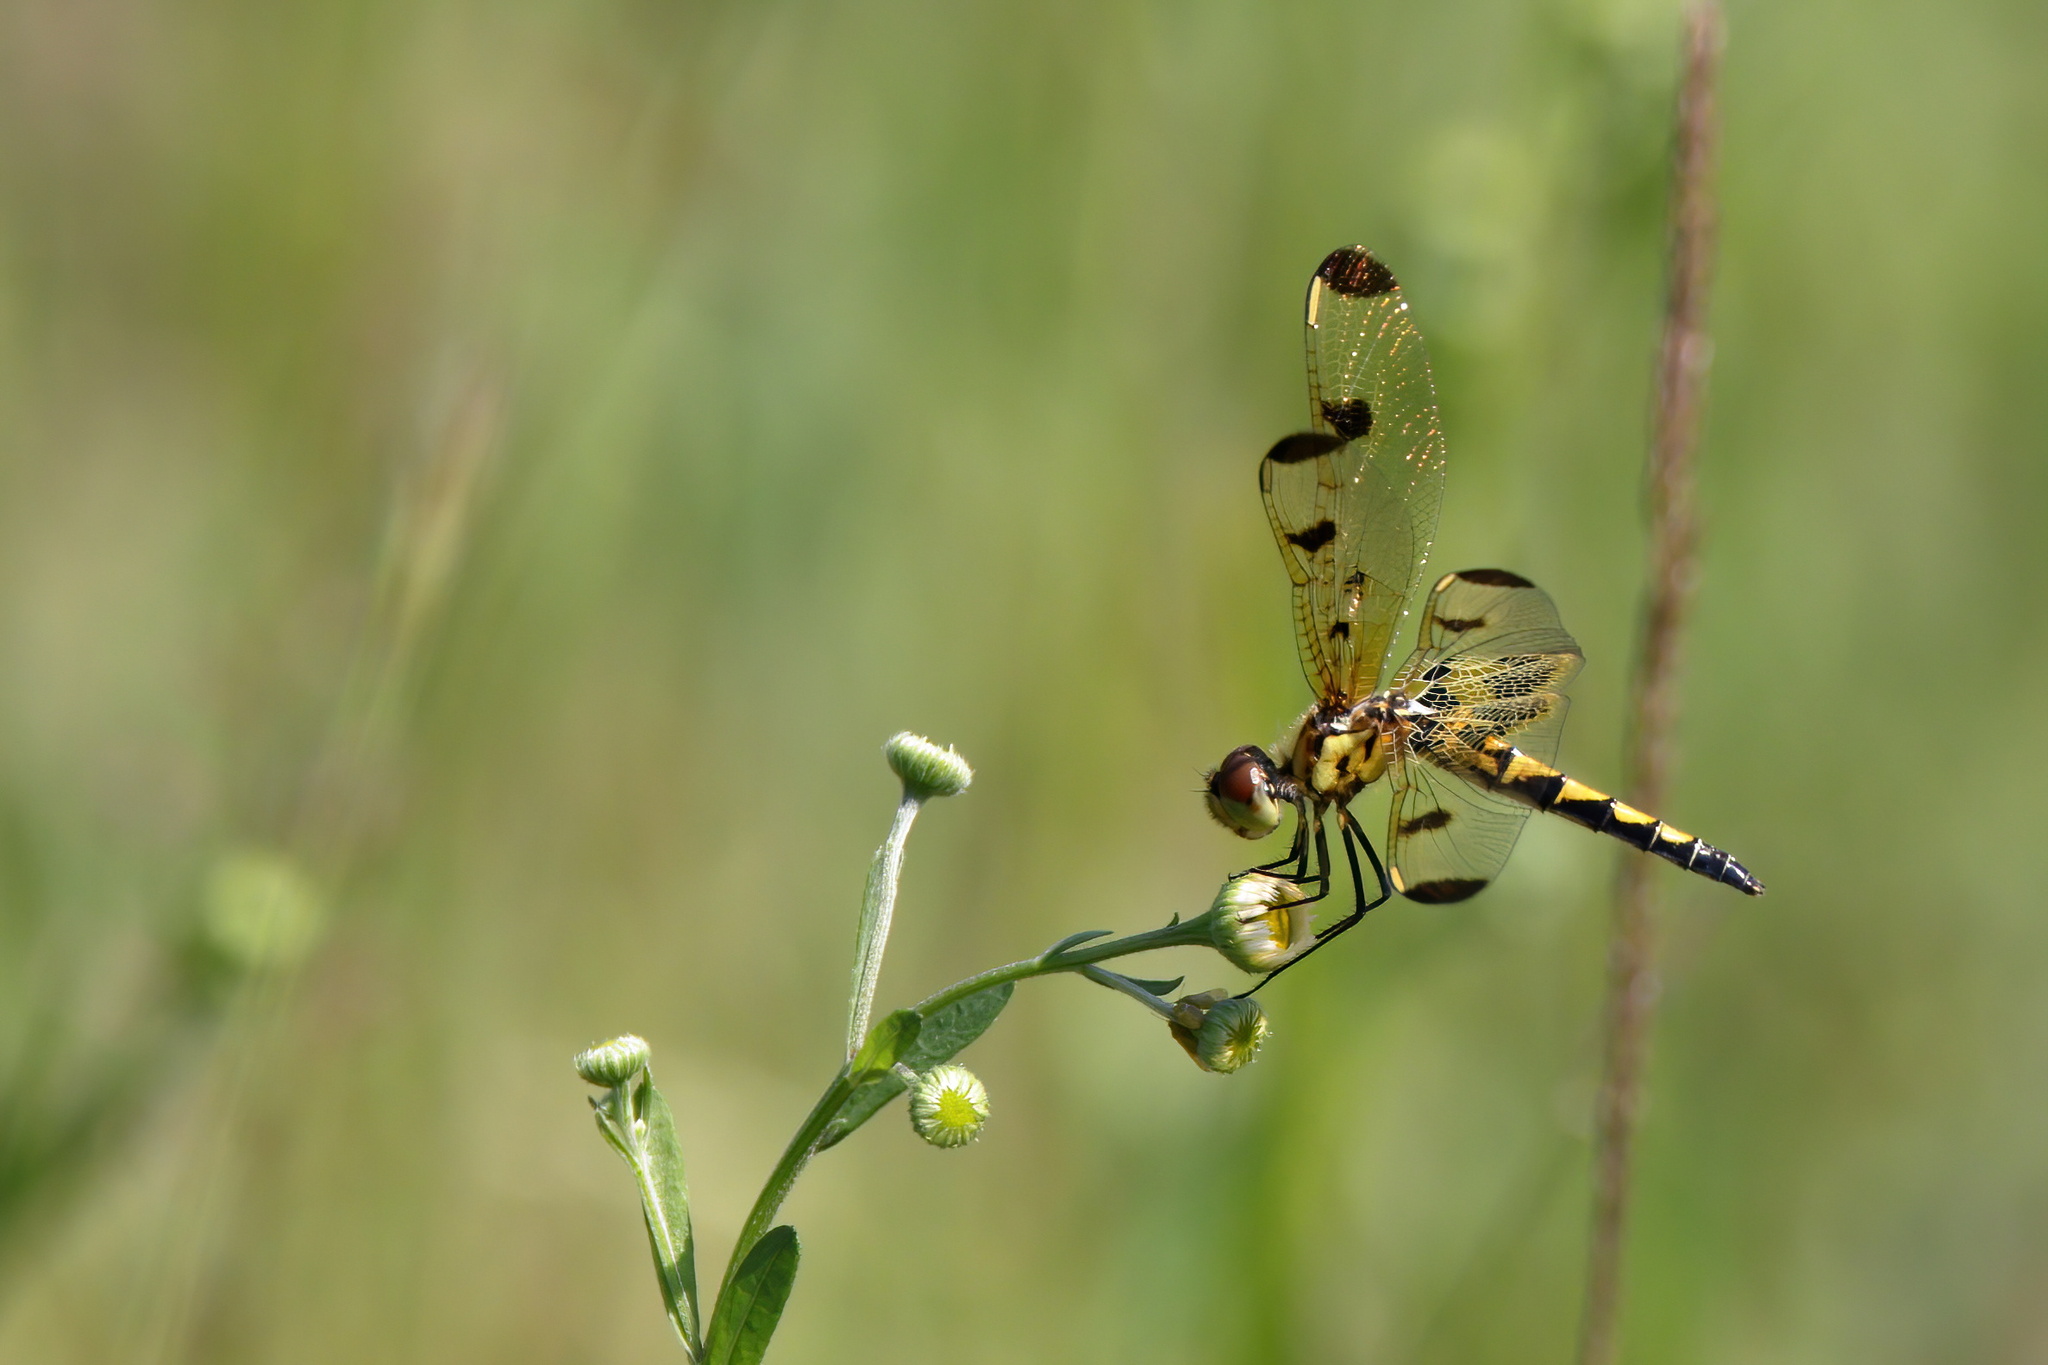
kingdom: Animalia
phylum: Arthropoda
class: Insecta
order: Odonata
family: Libellulidae
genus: Celithemis
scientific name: Celithemis elisa
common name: Calico pennant
